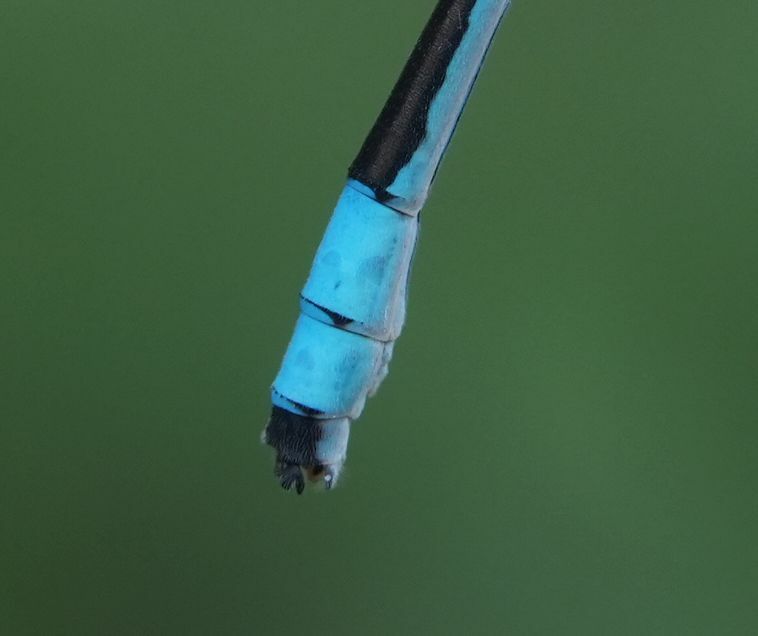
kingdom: Animalia
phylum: Arthropoda
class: Insecta
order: Odonata
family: Coenagrionidae
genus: Enallagma
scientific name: Enallagma ebrium
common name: Marsh bluet
